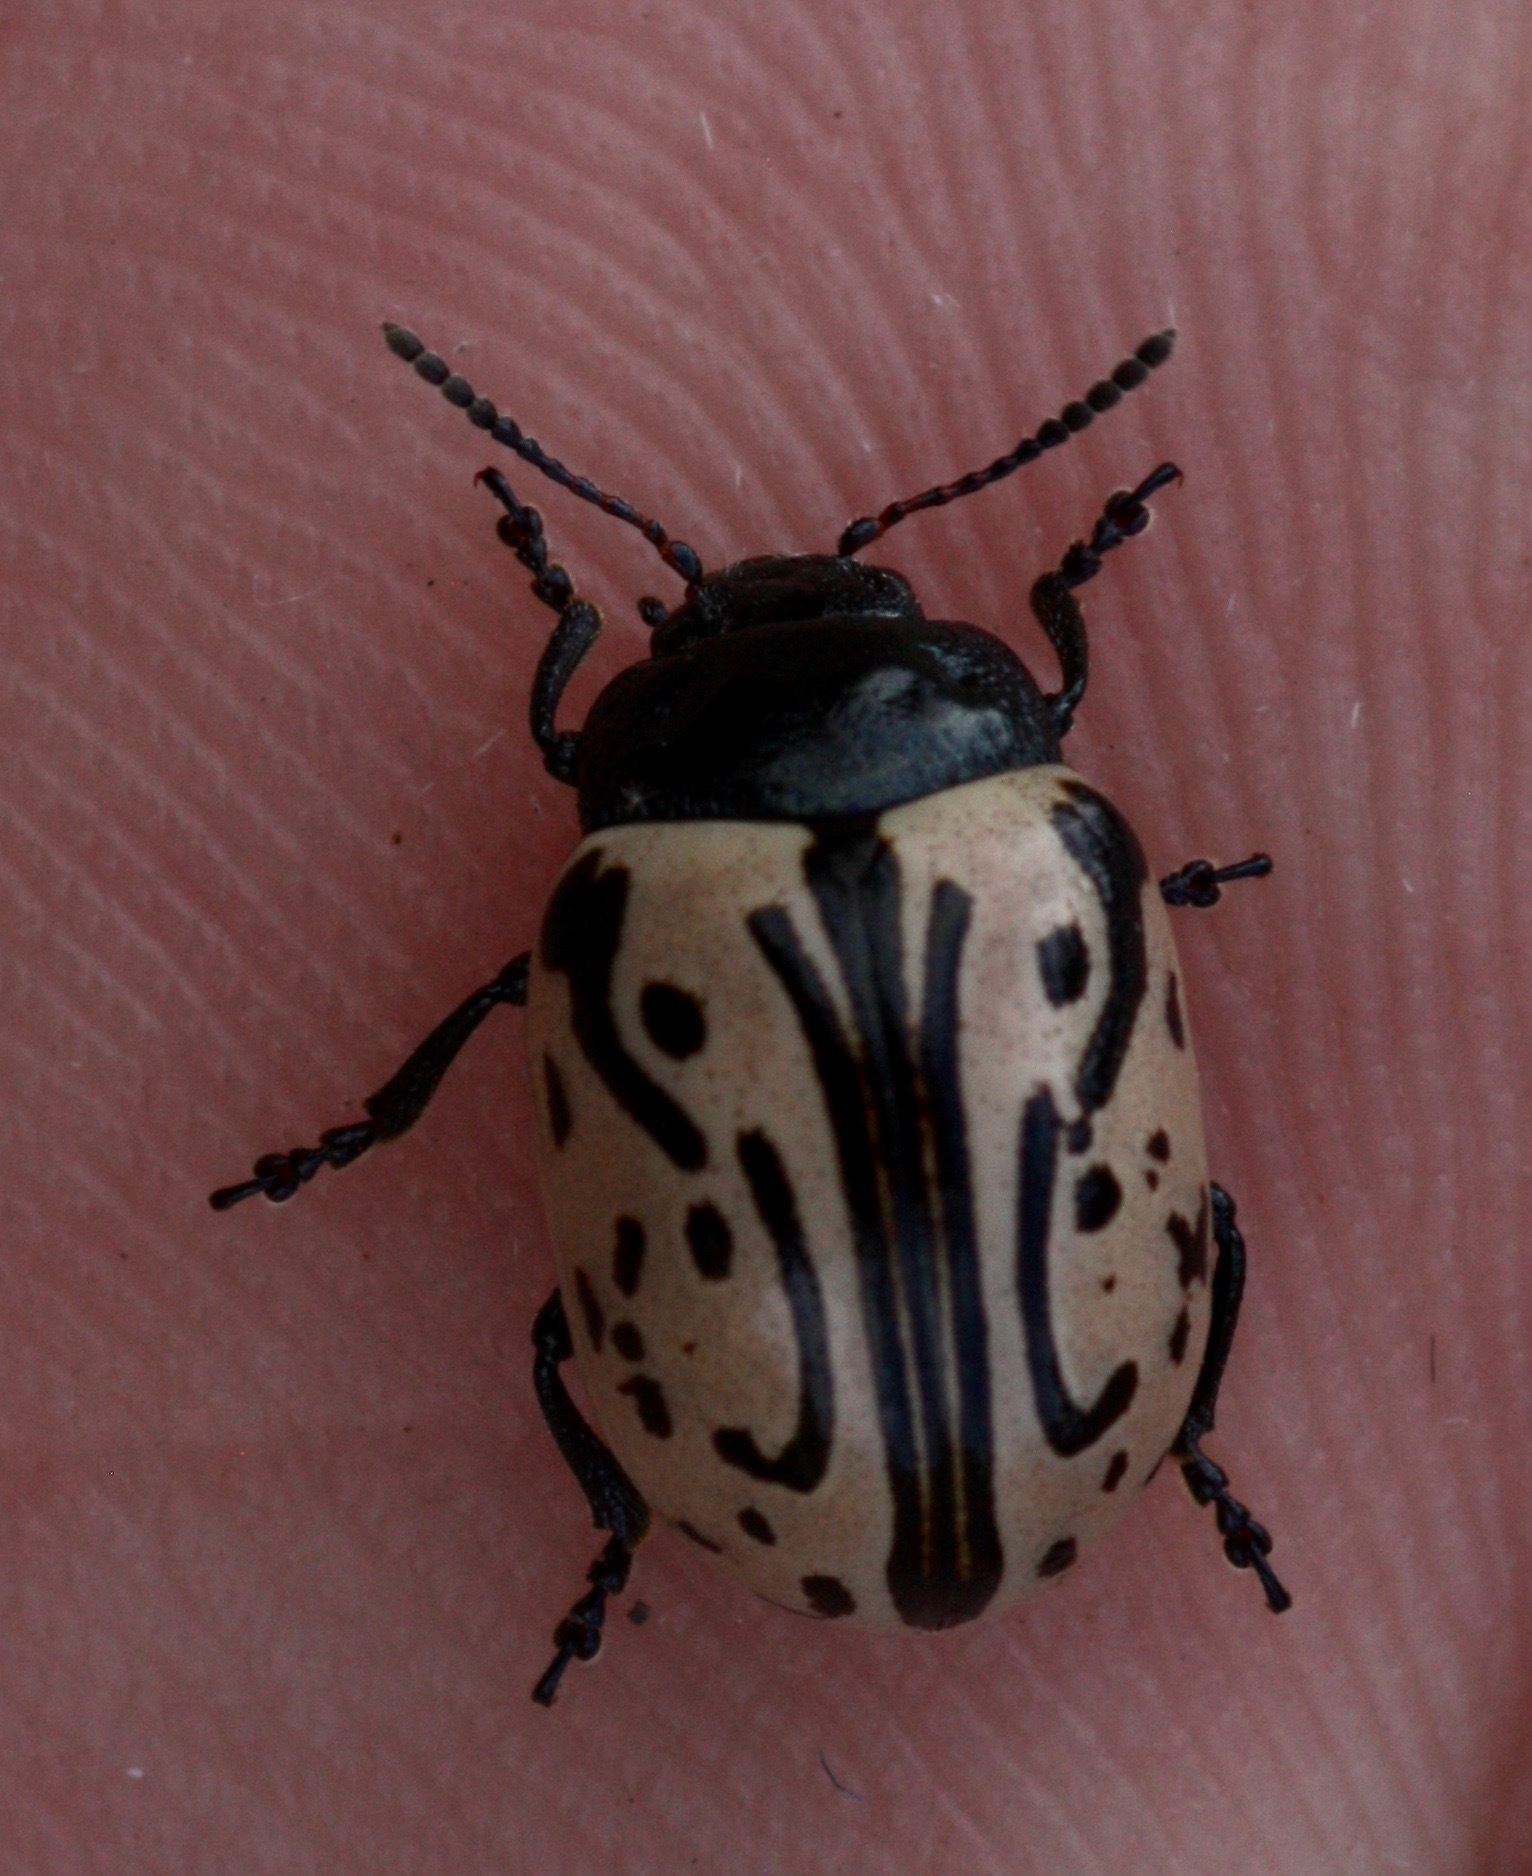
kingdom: Animalia
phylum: Arthropoda
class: Insecta
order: Coleoptera
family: Chrysomelidae
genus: Calligrapha
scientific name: Calligrapha dislocata
